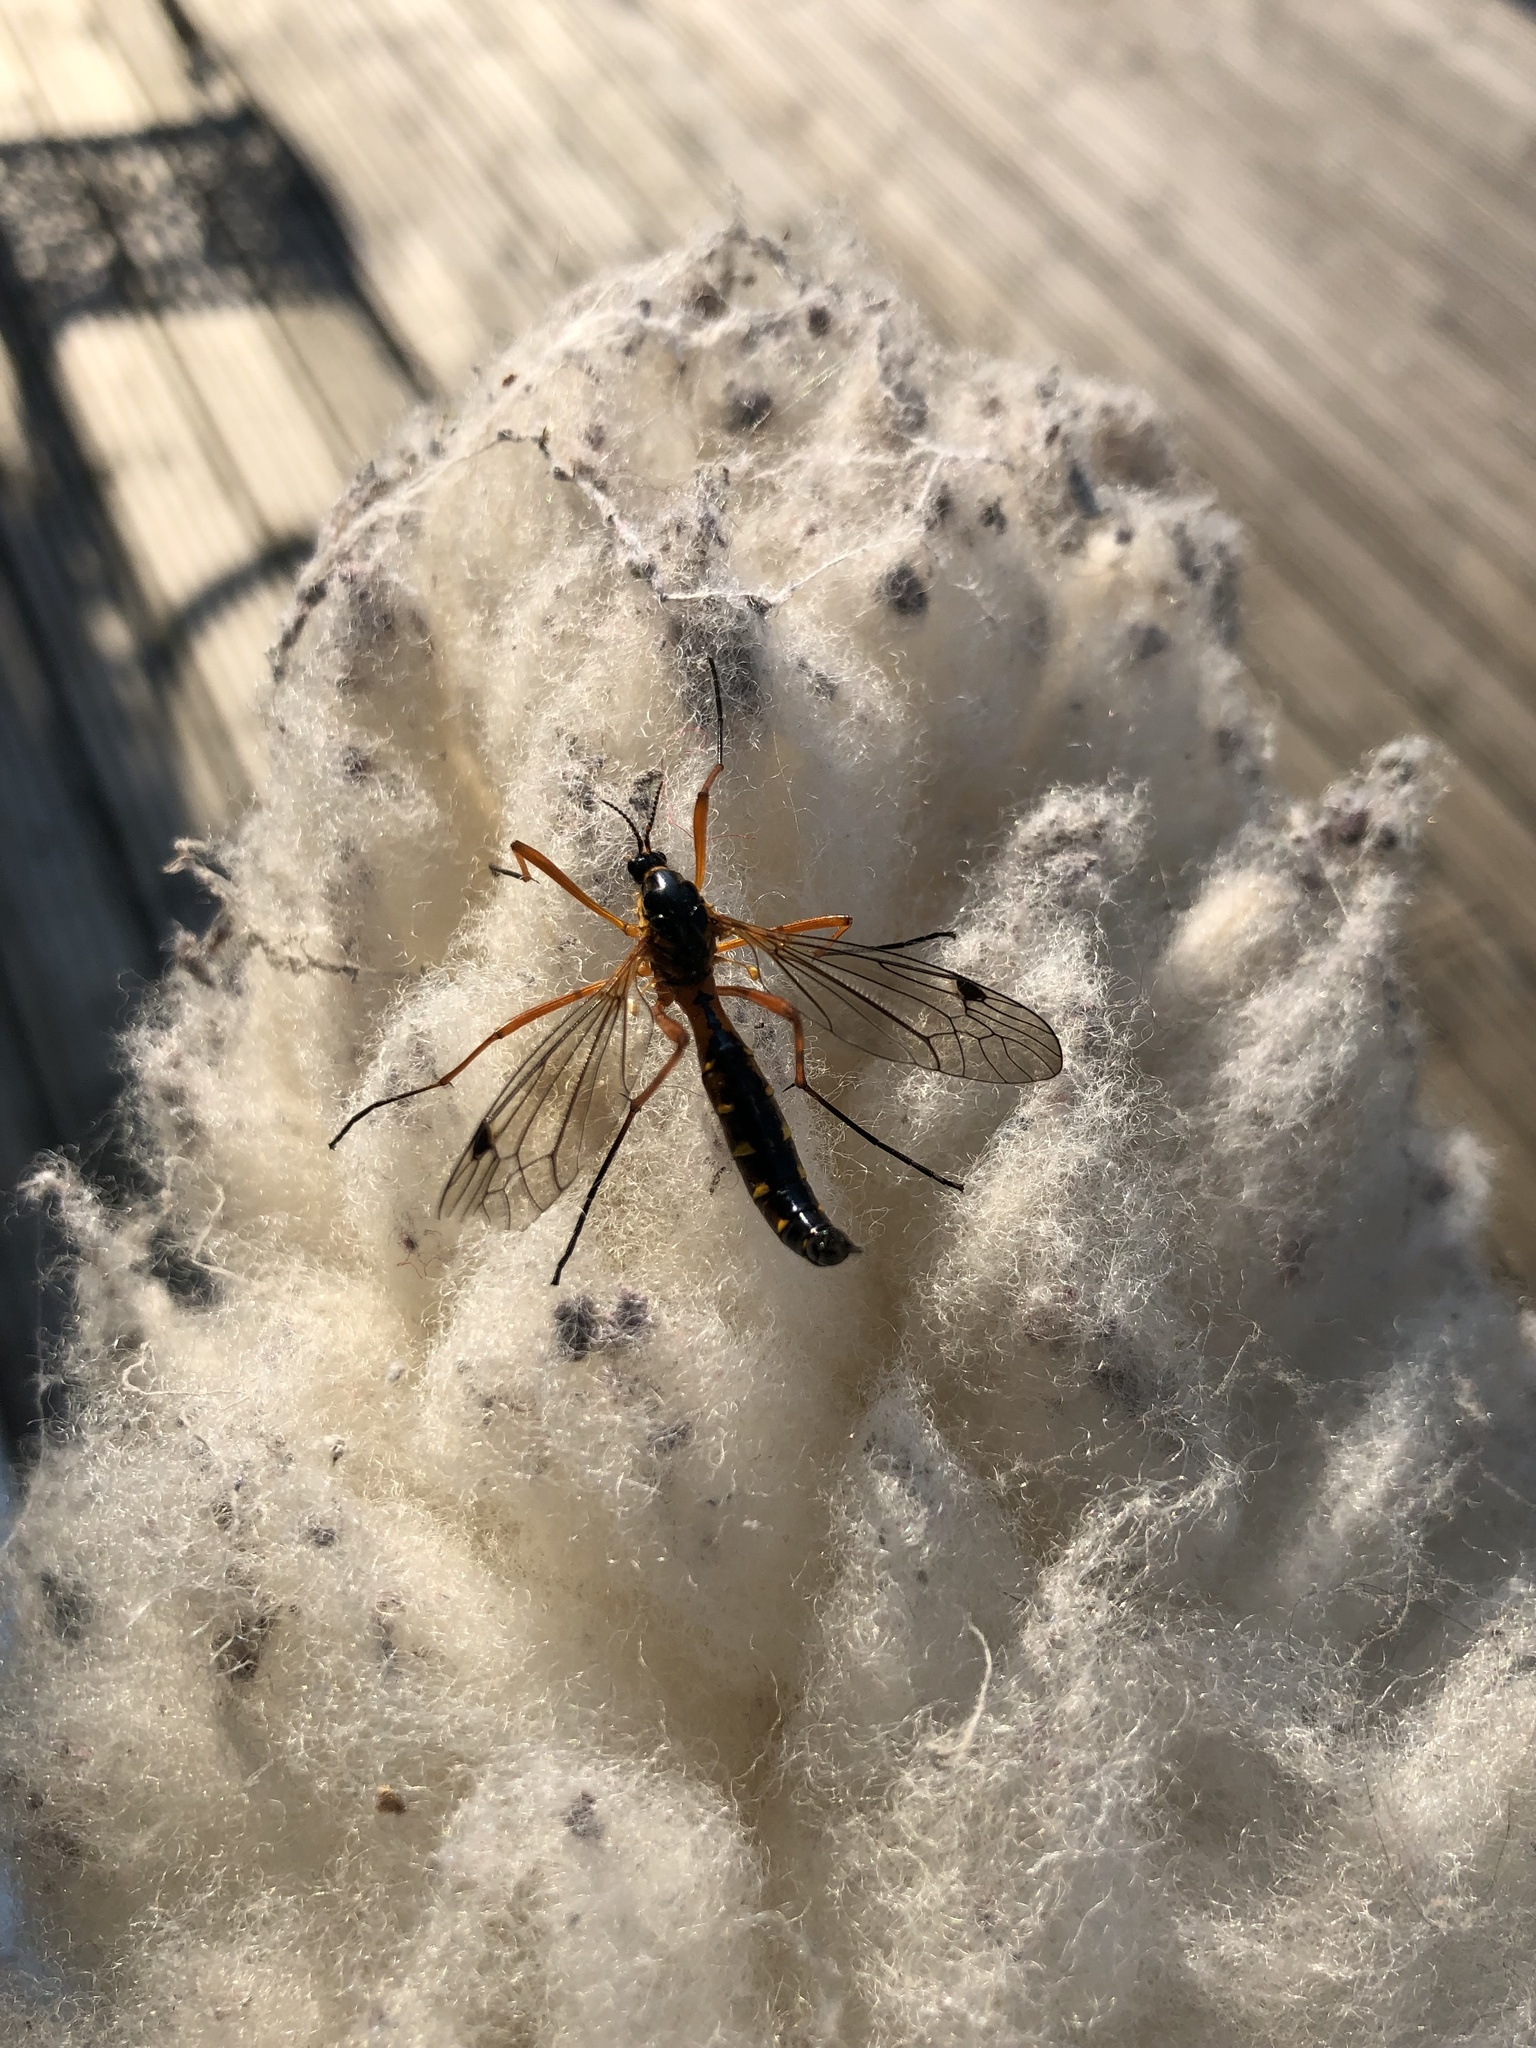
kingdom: Animalia
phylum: Arthropoda
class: Insecta
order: Diptera
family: Tipulidae
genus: Ctenophora
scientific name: Ctenophora pectinicornis
